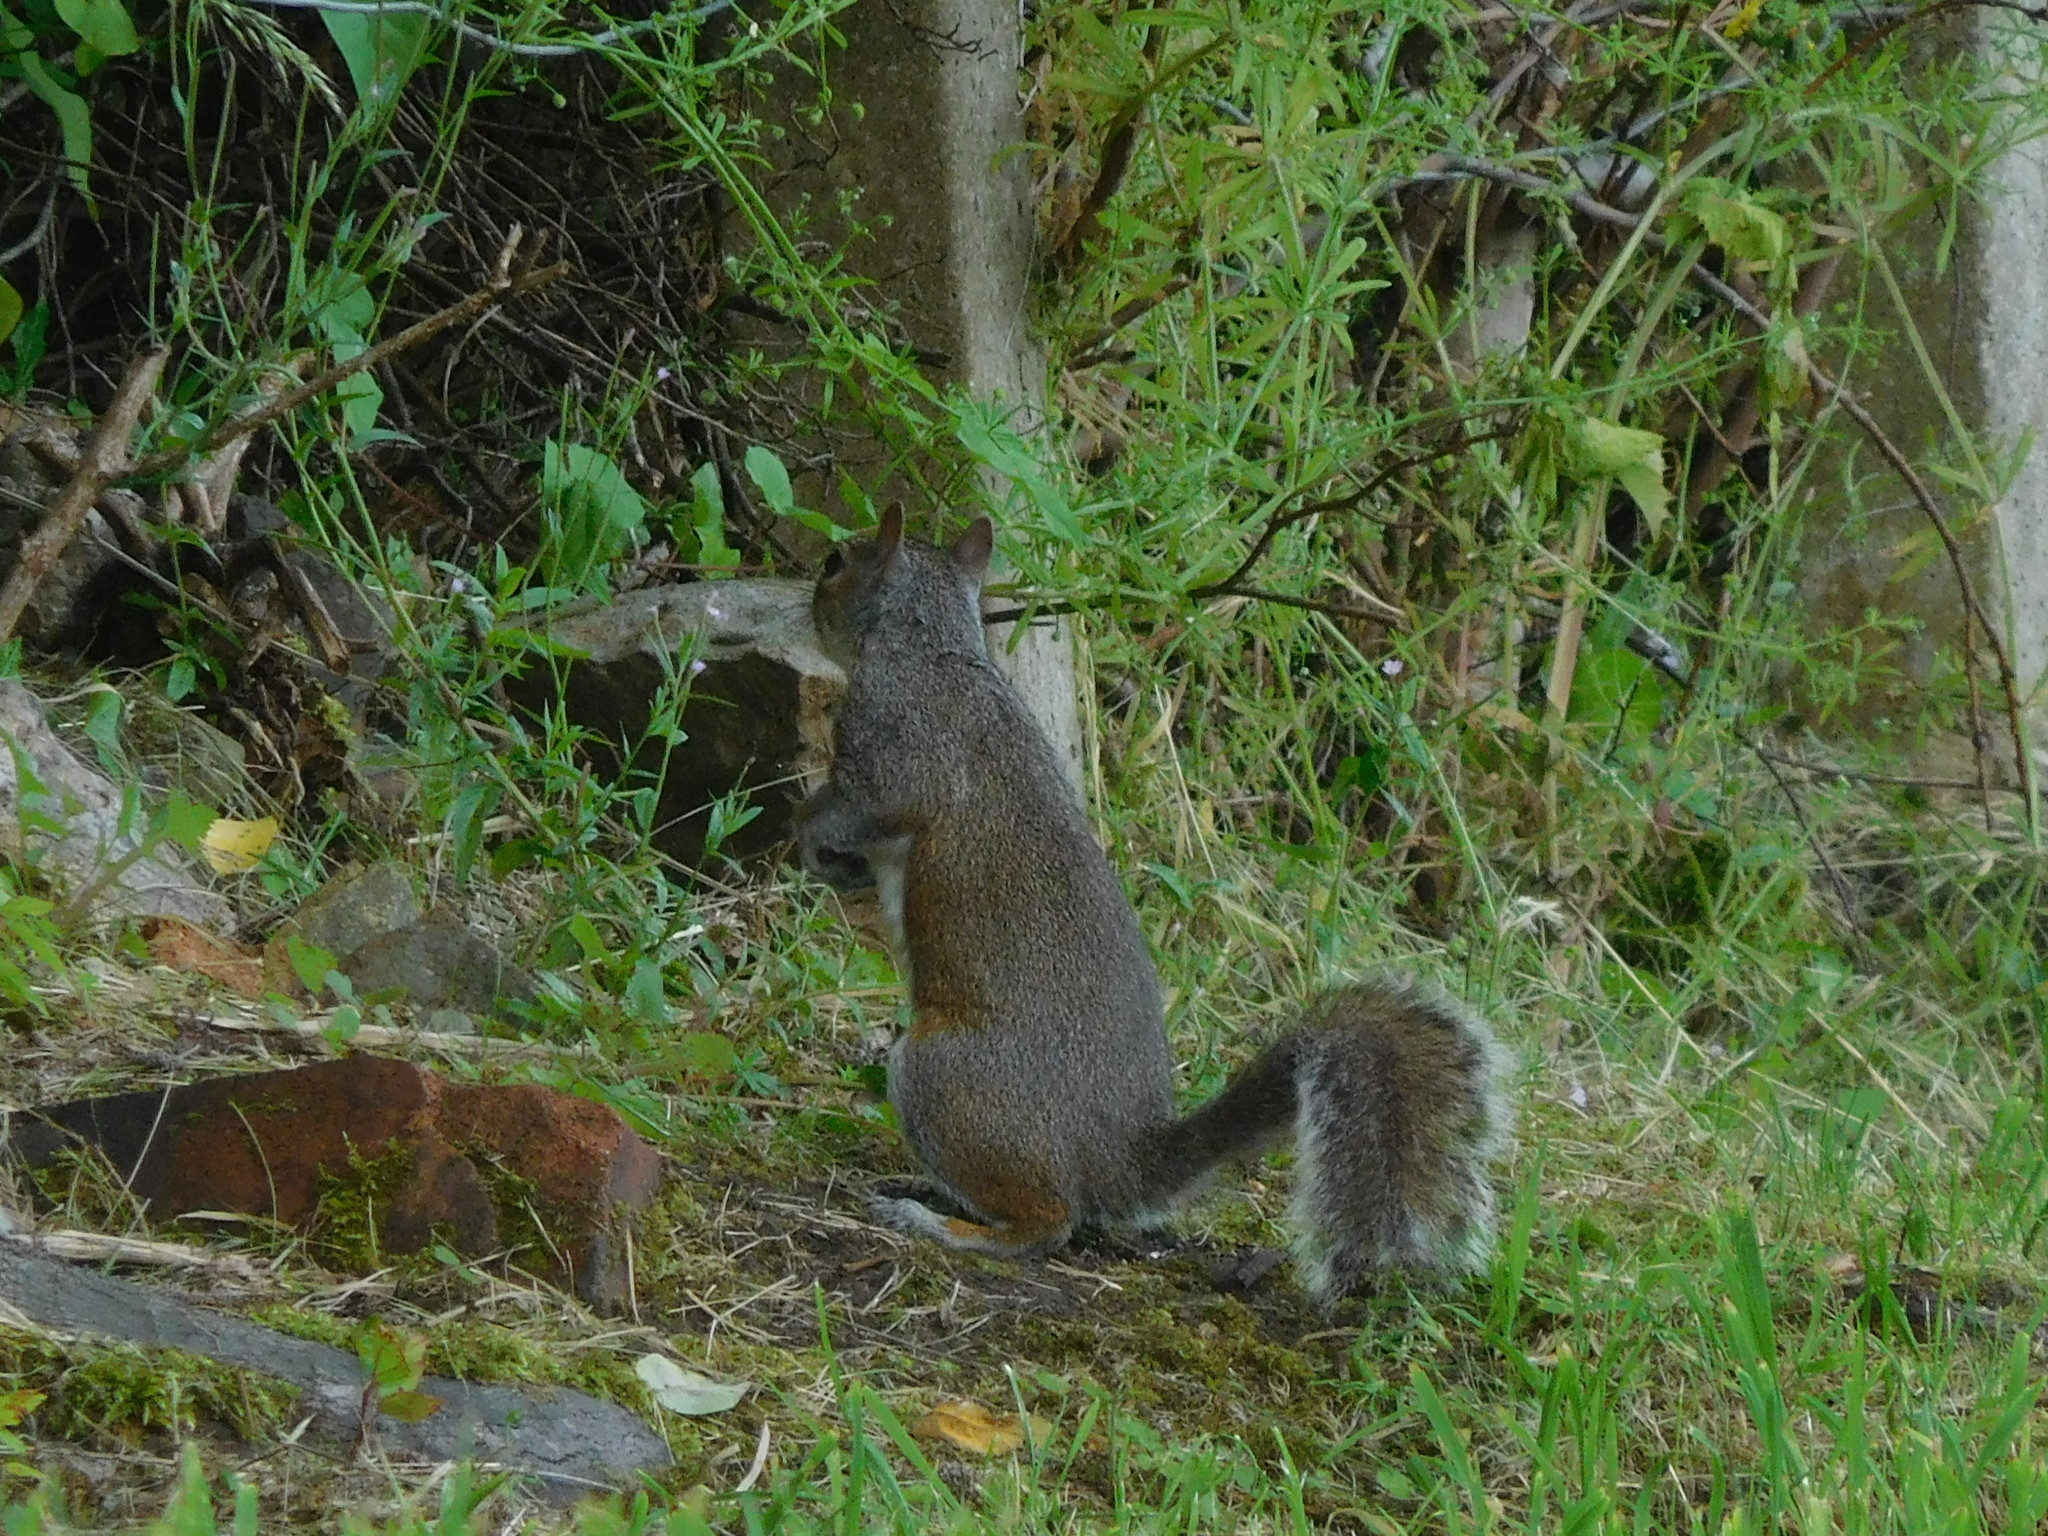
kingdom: Animalia
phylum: Chordata
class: Mammalia
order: Rodentia
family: Sciuridae
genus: Sciurus
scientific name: Sciurus carolinensis
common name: Eastern gray squirrel
